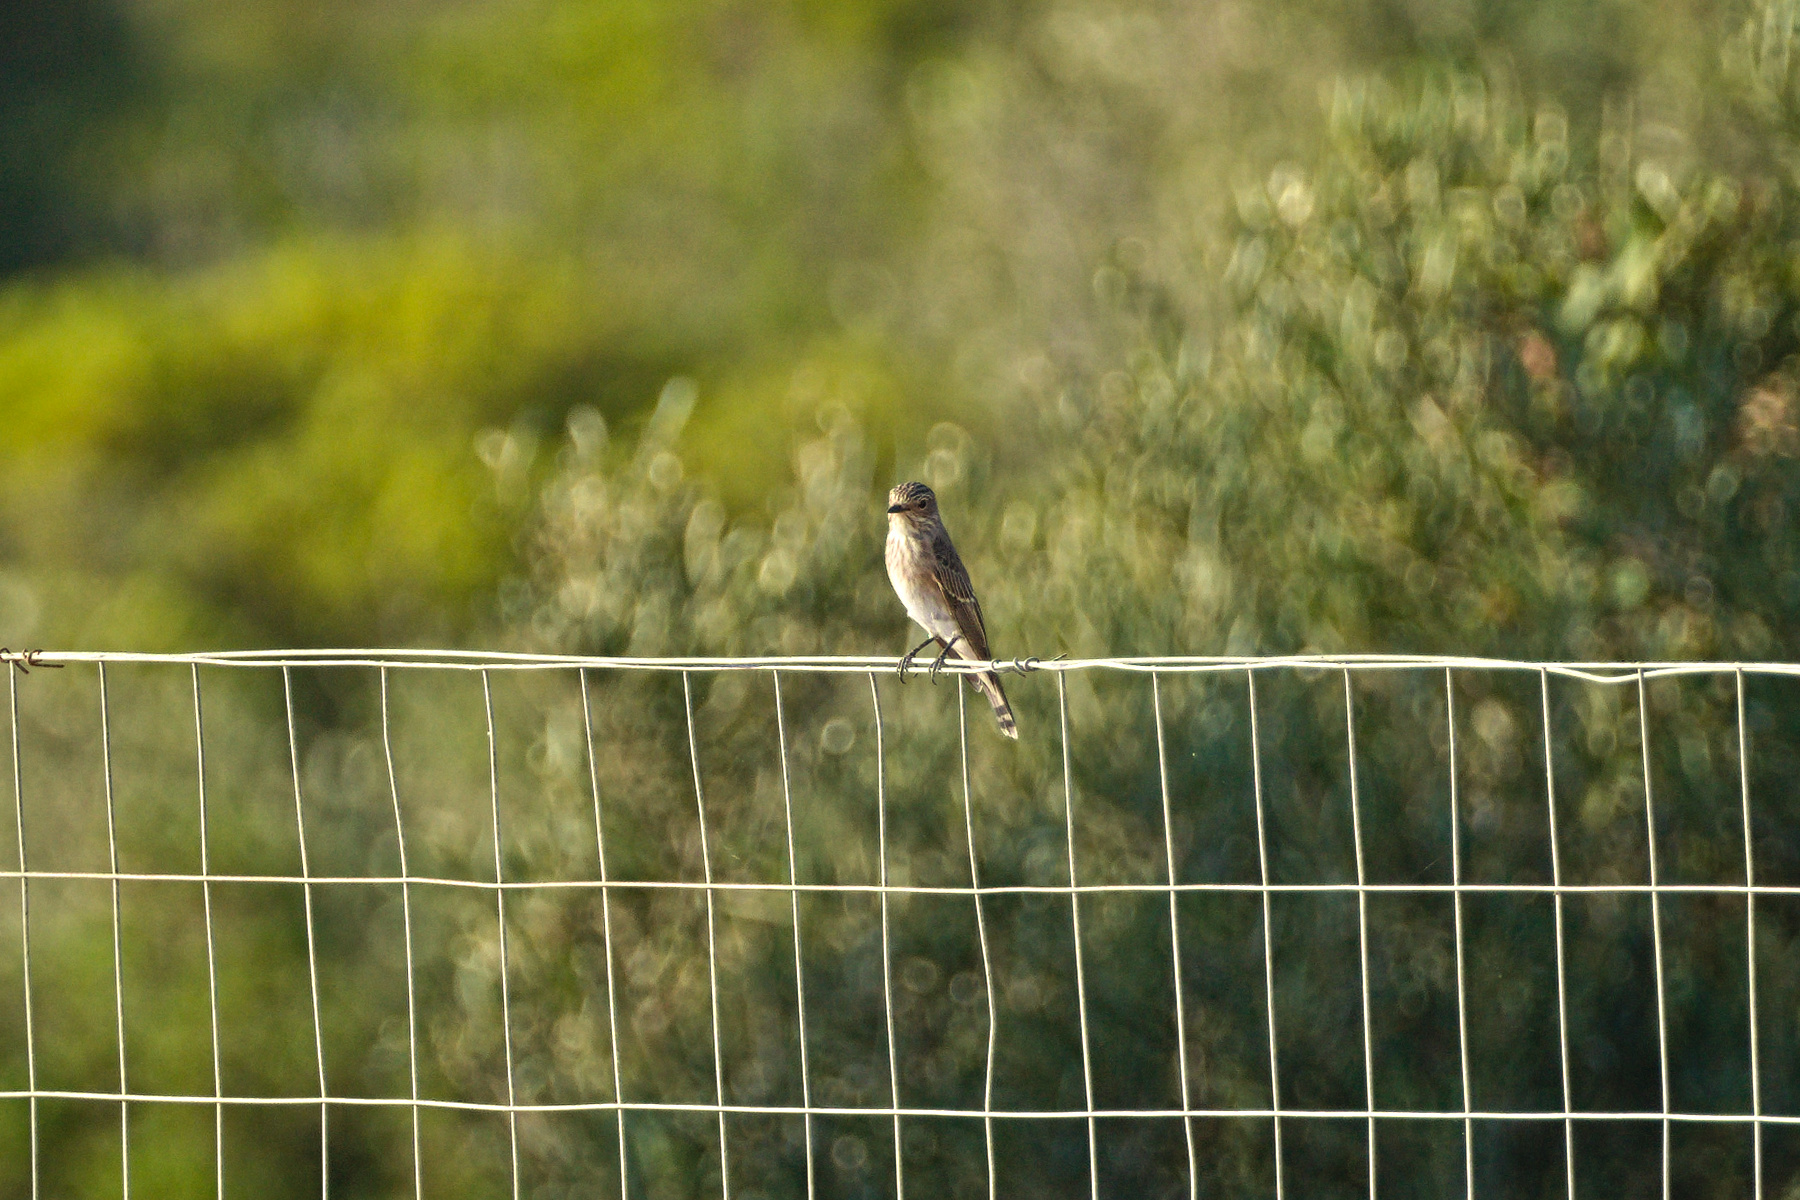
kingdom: Animalia
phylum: Chordata
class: Aves
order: Passeriformes
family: Muscicapidae
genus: Muscicapa
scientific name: Muscicapa striata
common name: Spotted flycatcher
